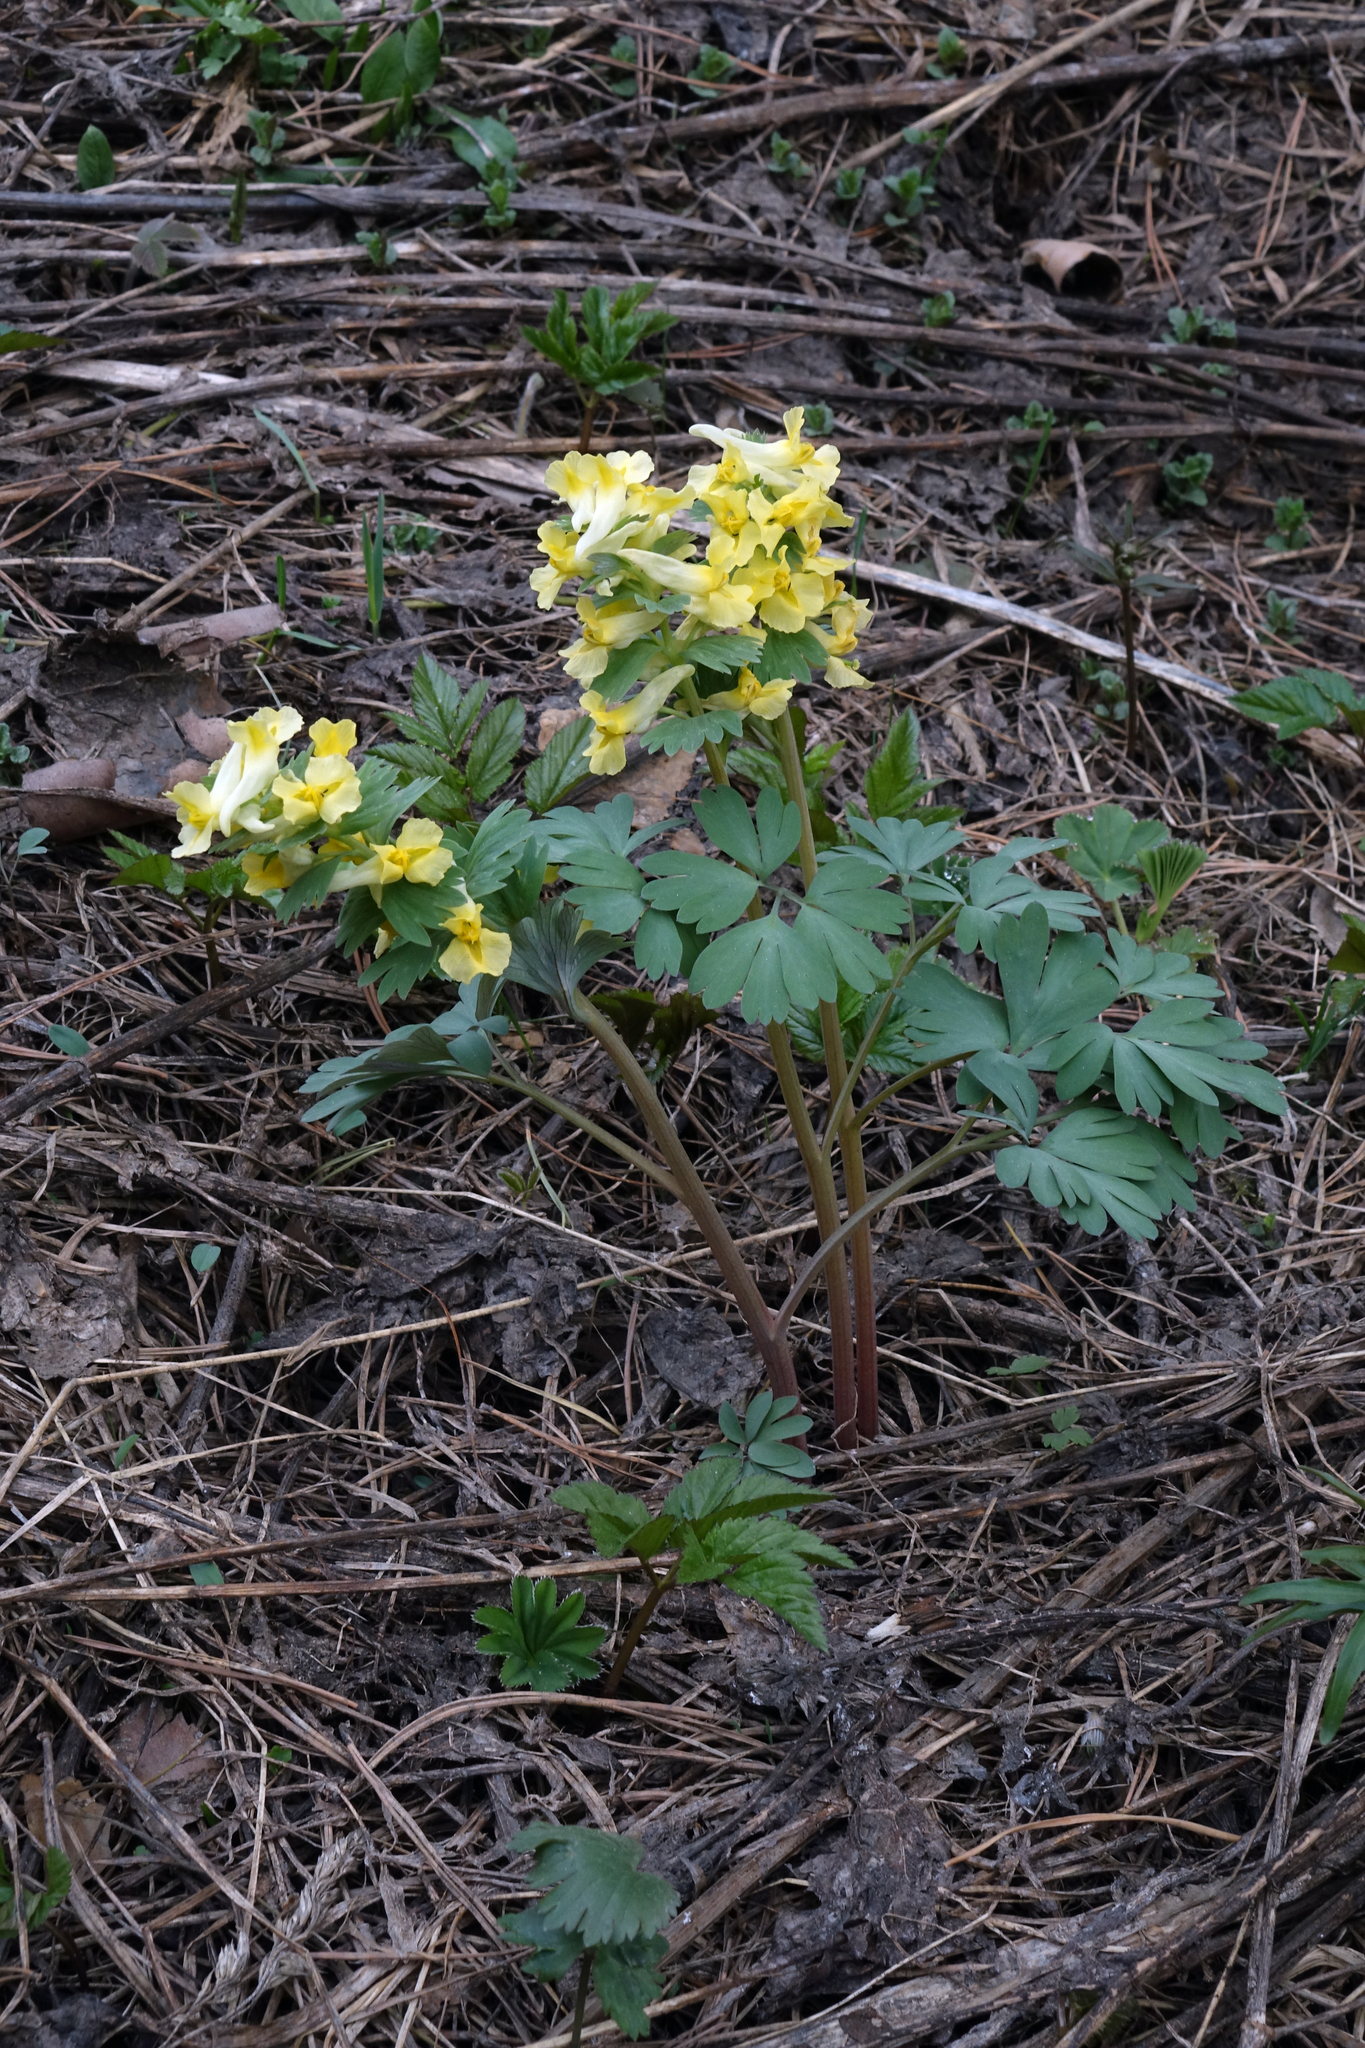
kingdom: Plantae
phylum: Tracheophyta
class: Magnoliopsida
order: Ranunculales
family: Papaveraceae
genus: Corydalis
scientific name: Corydalis bracteata
